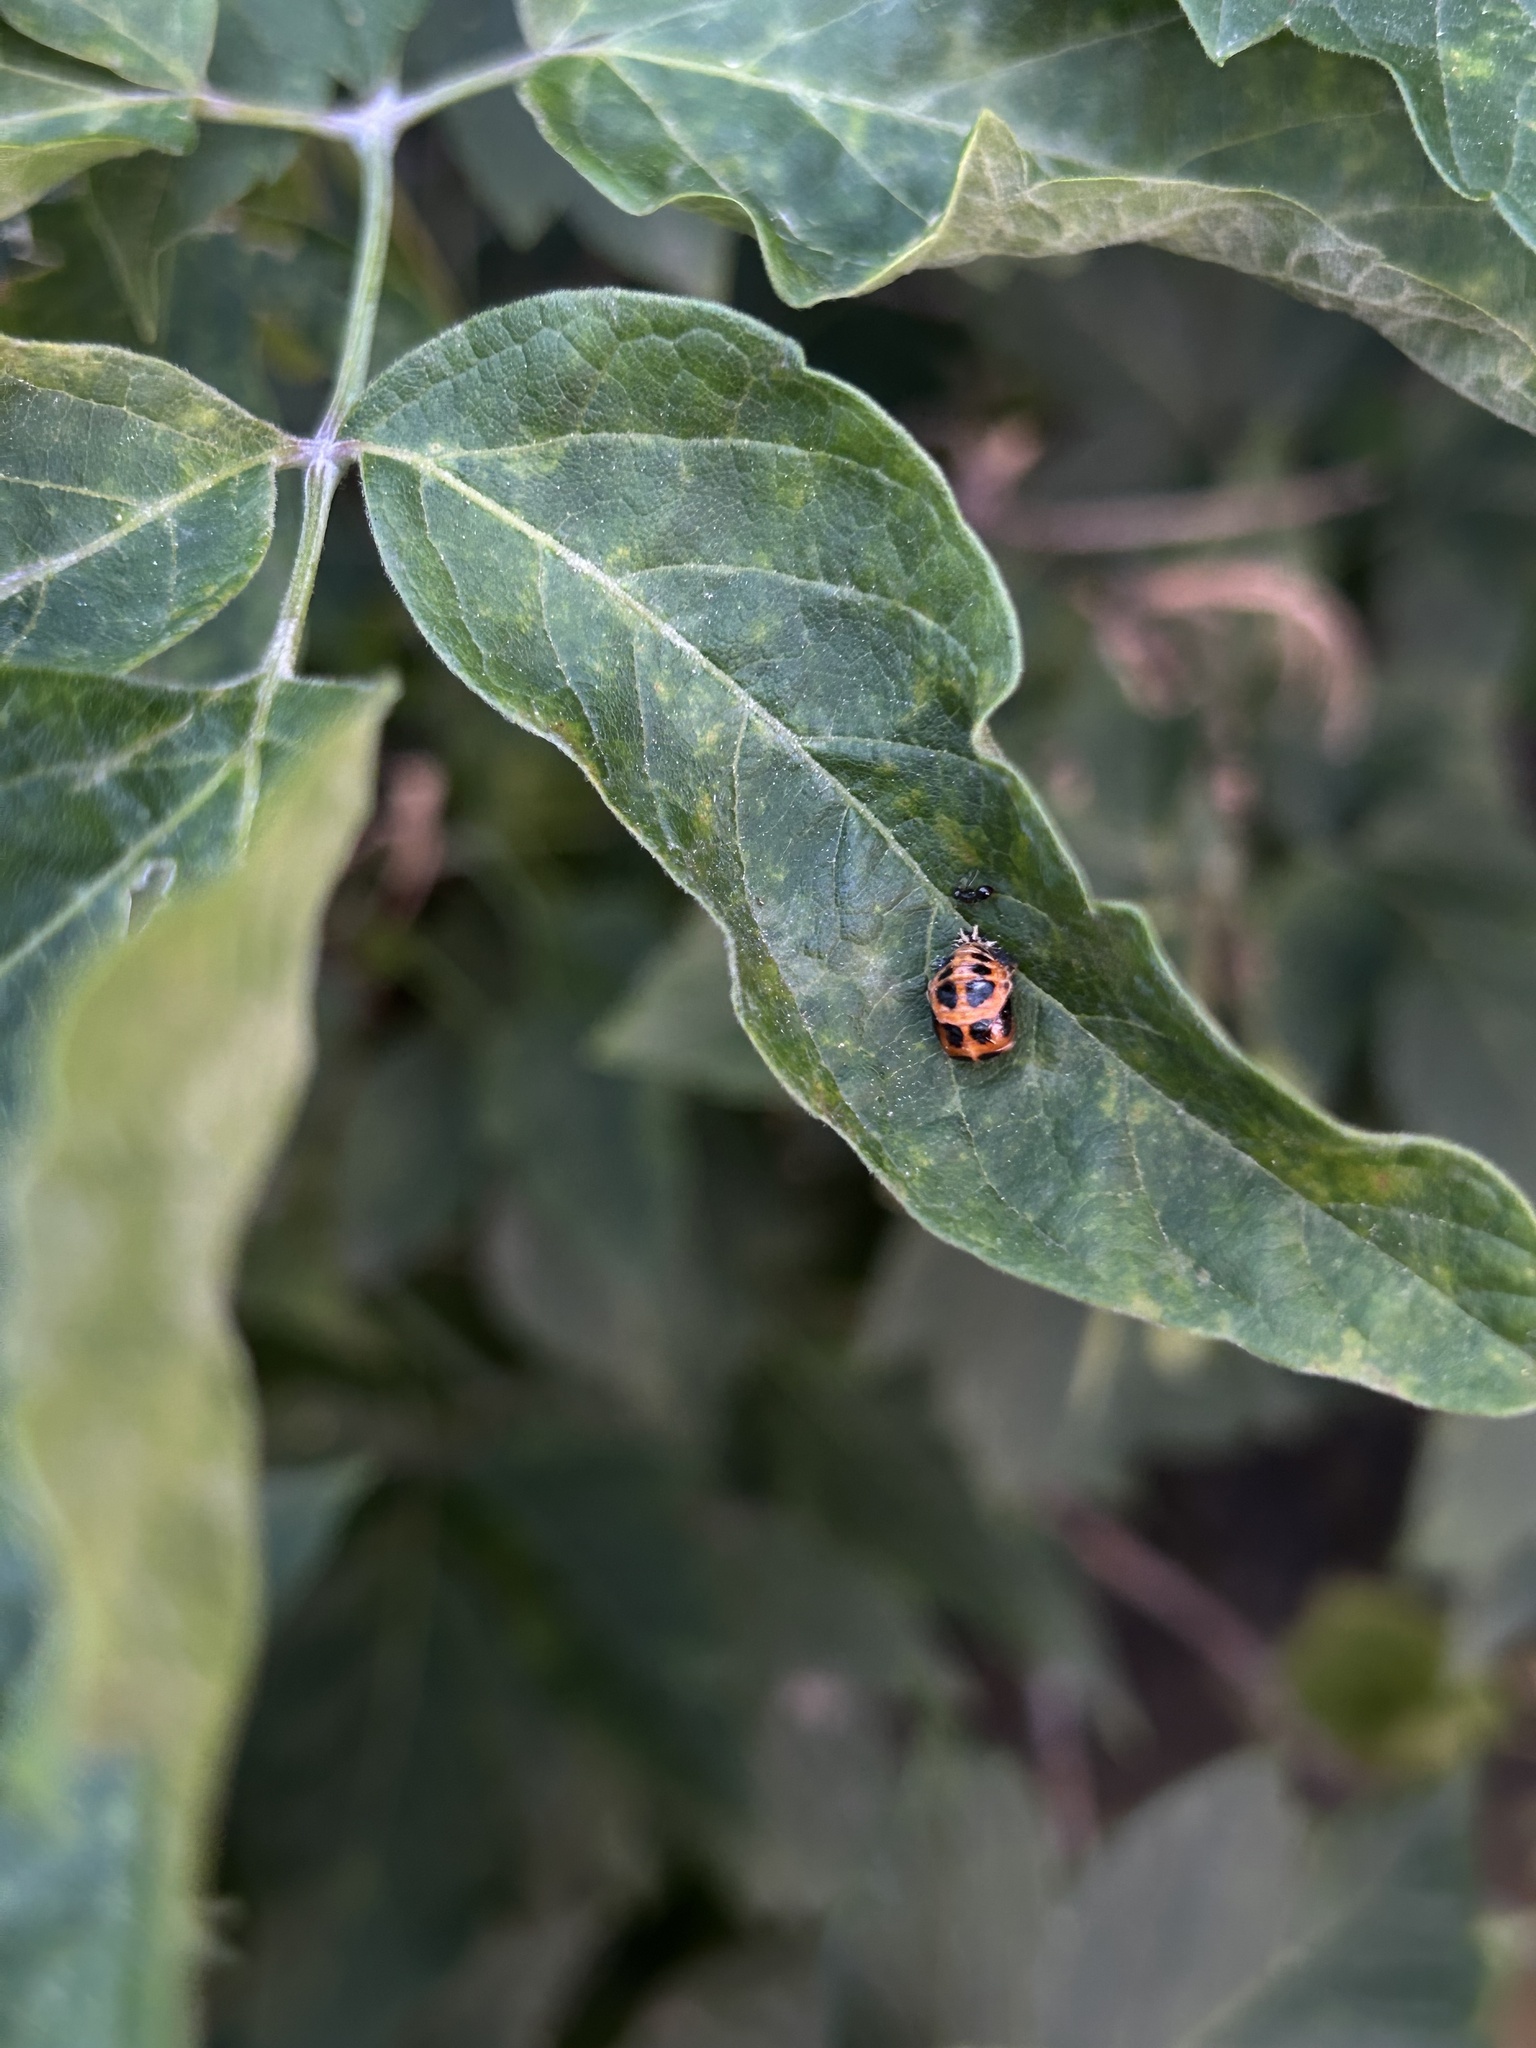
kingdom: Animalia
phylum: Arthropoda
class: Insecta
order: Coleoptera
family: Coccinellidae
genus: Harmonia
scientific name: Harmonia axyridis
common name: Harlequin ladybird
